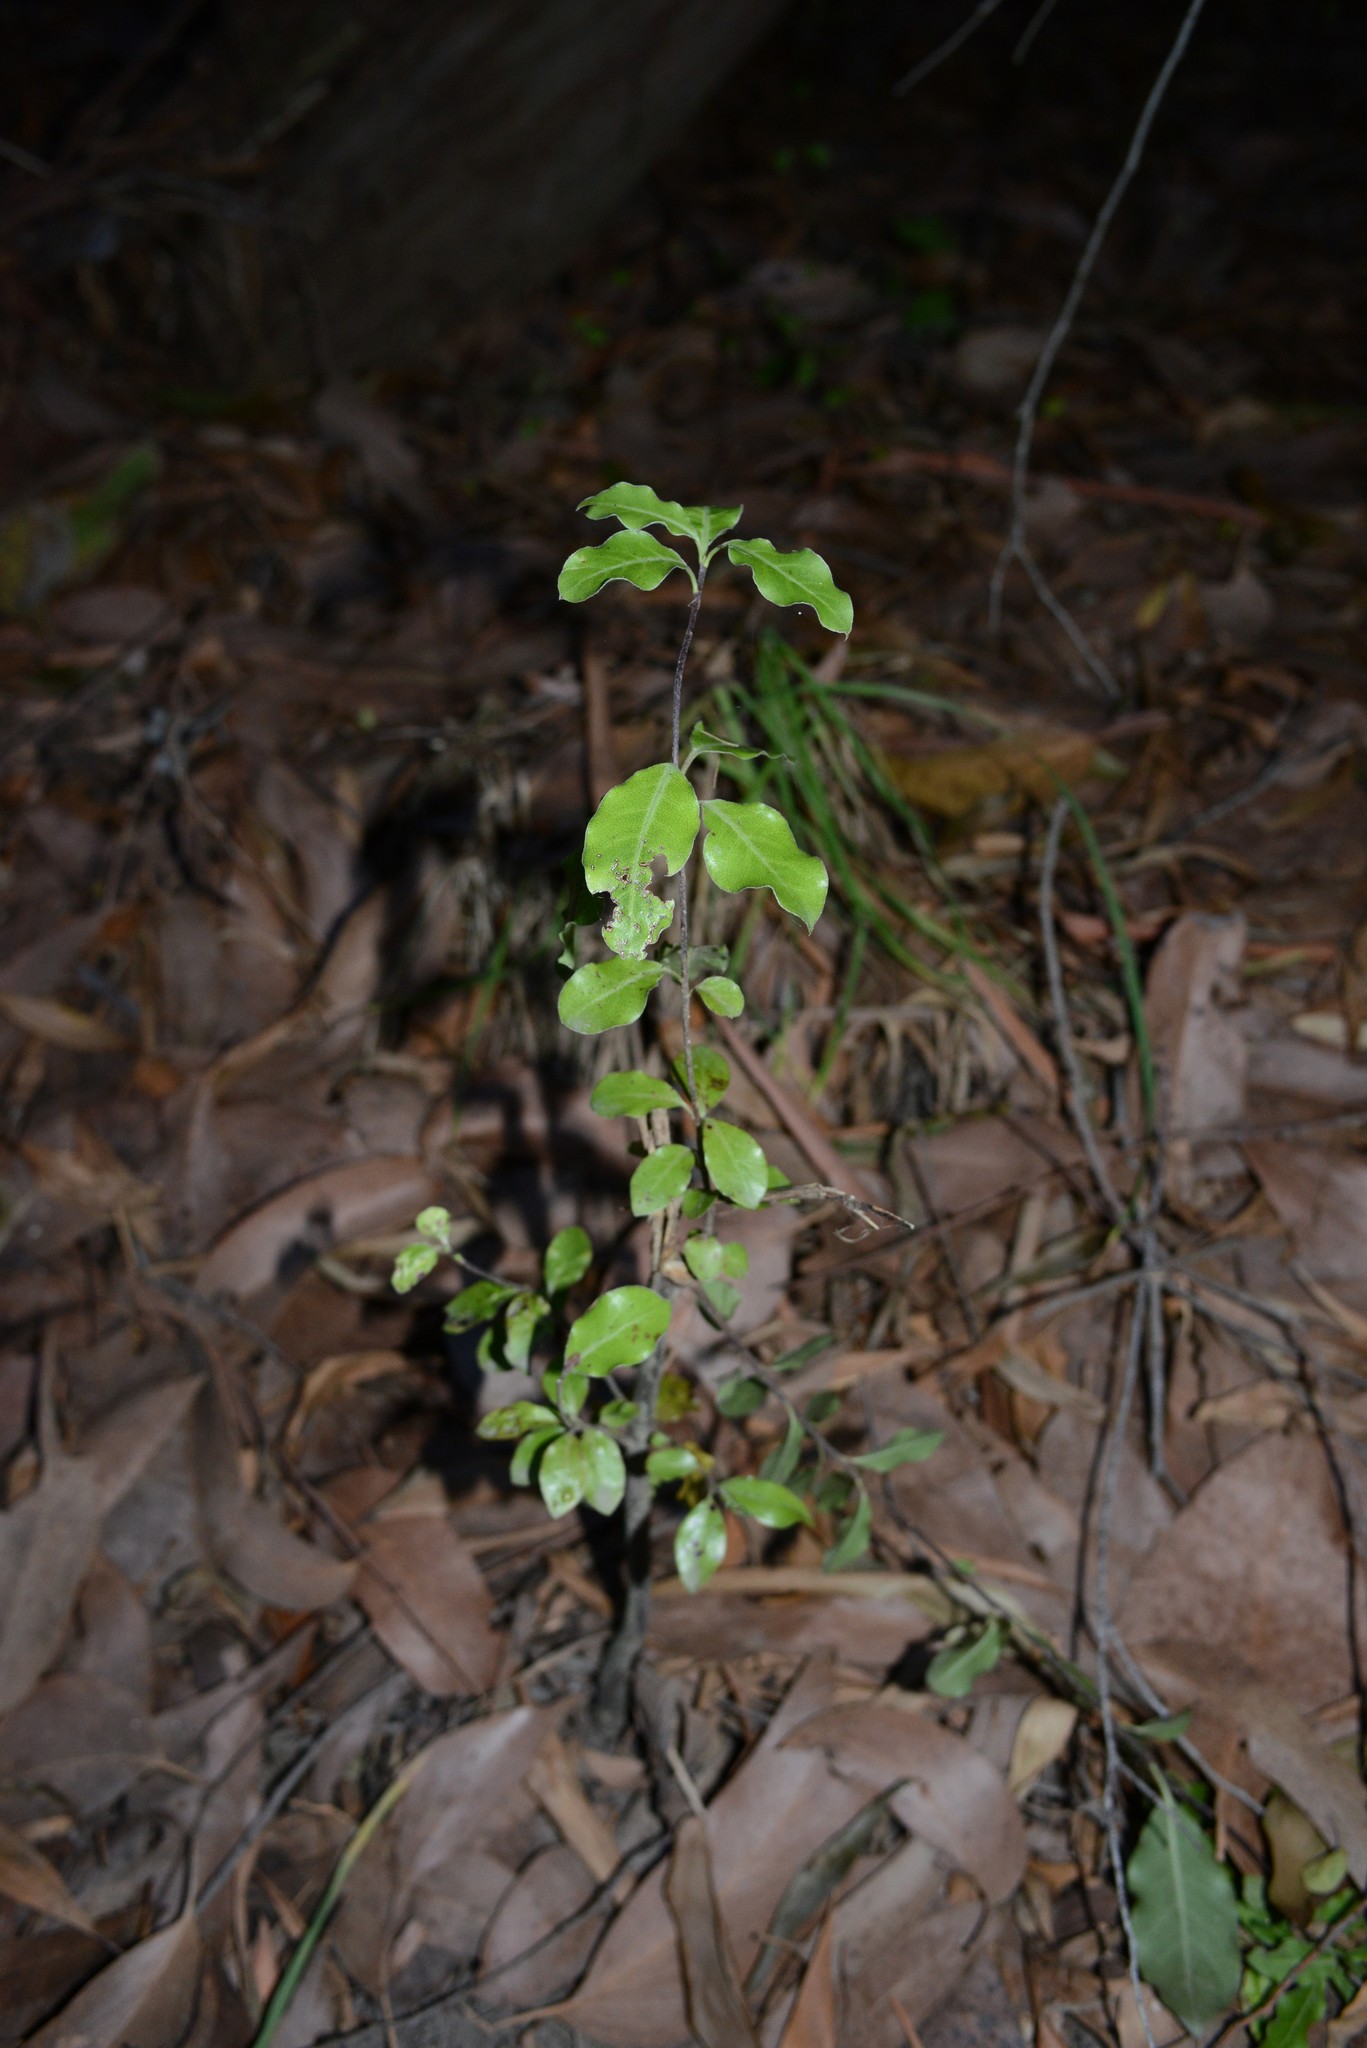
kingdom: Plantae
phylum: Tracheophyta
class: Magnoliopsida
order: Apiales
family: Pittosporaceae
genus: Pittosporum
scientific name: Pittosporum tenuifolium
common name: Kohuhu
